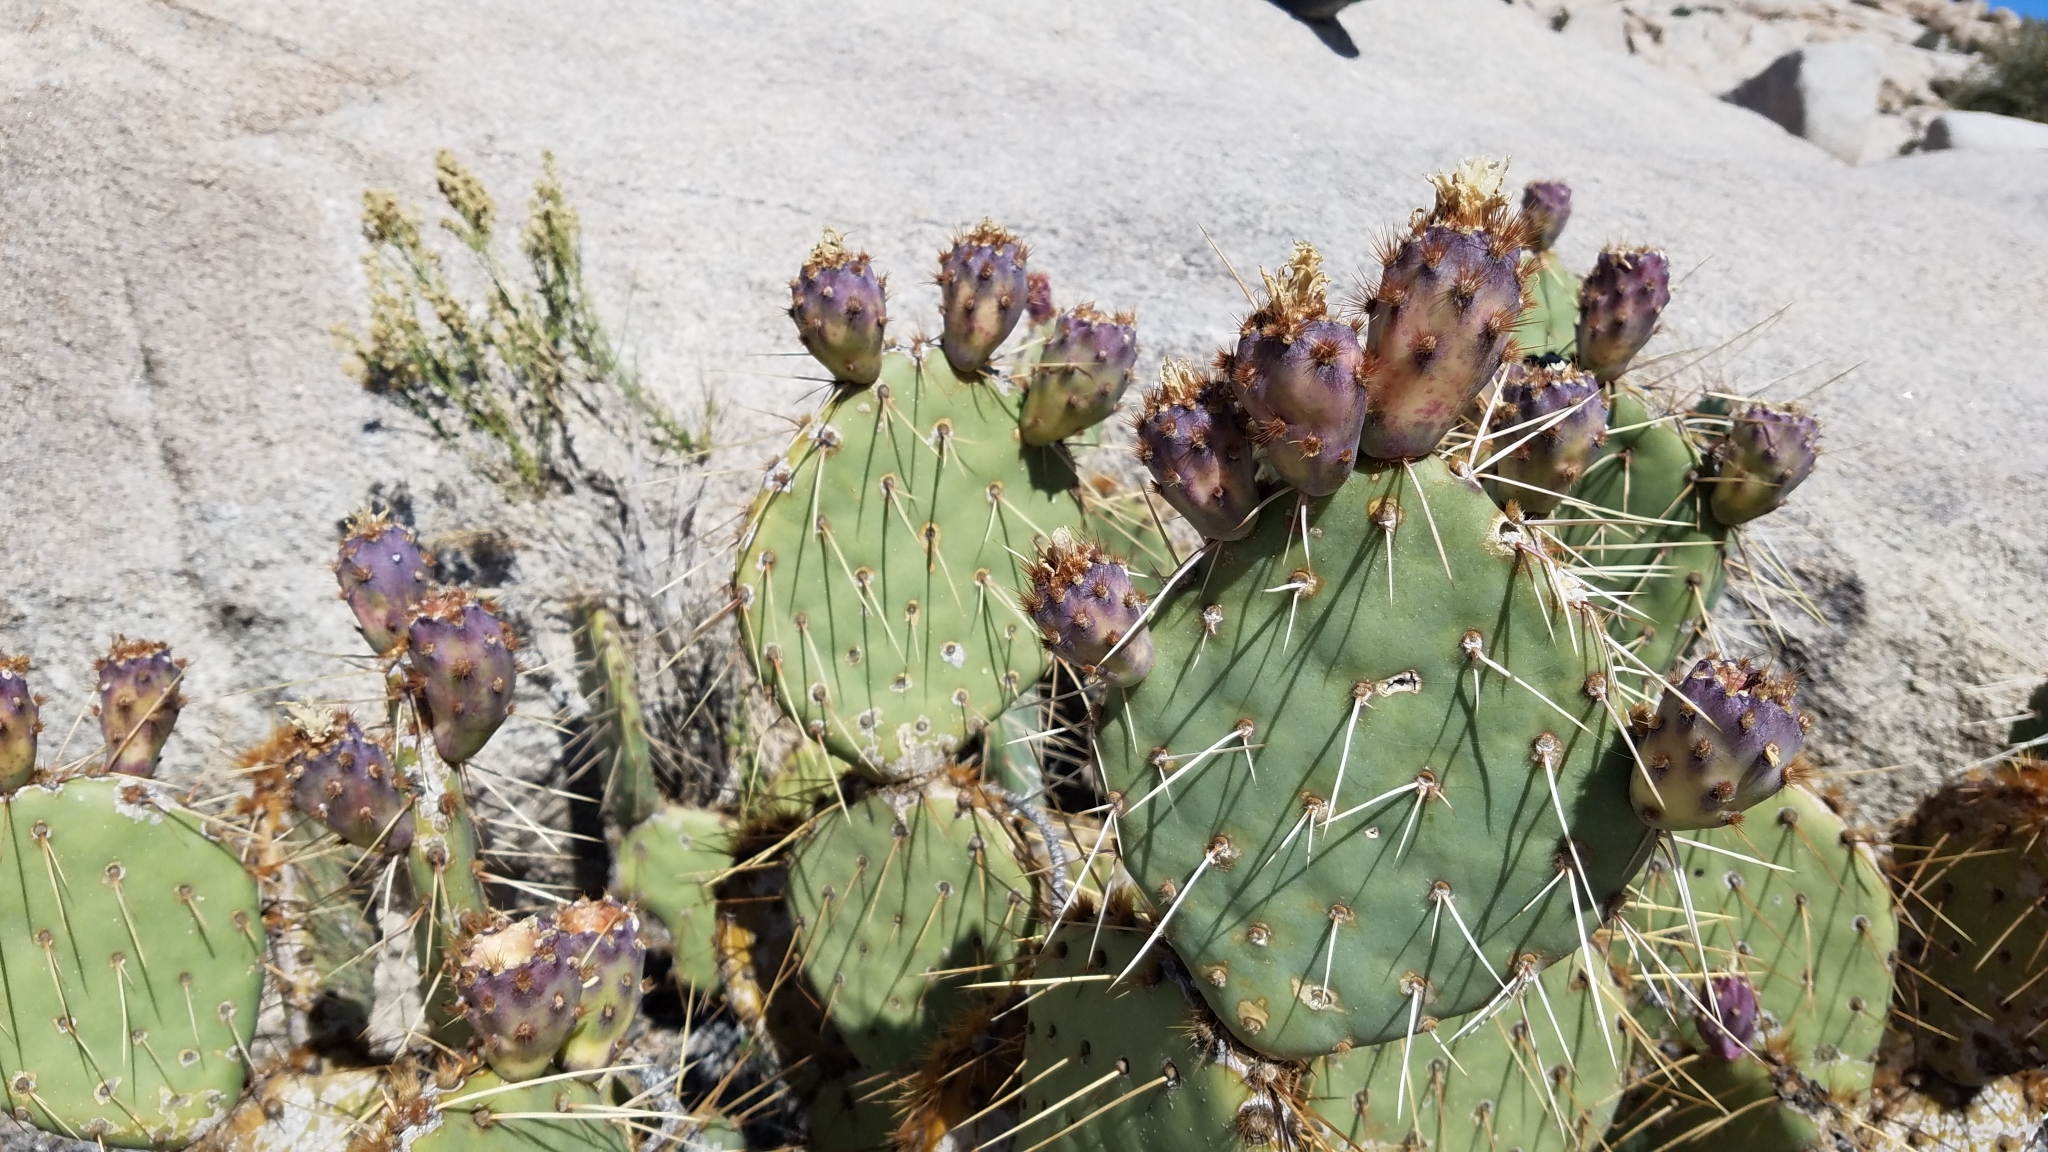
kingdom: Plantae
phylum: Tracheophyta
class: Magnoliopsida
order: Caryophyllales
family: Cactaceae
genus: Opuntia
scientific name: Opuntia phaeacantha
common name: New mexico prickly-pear
